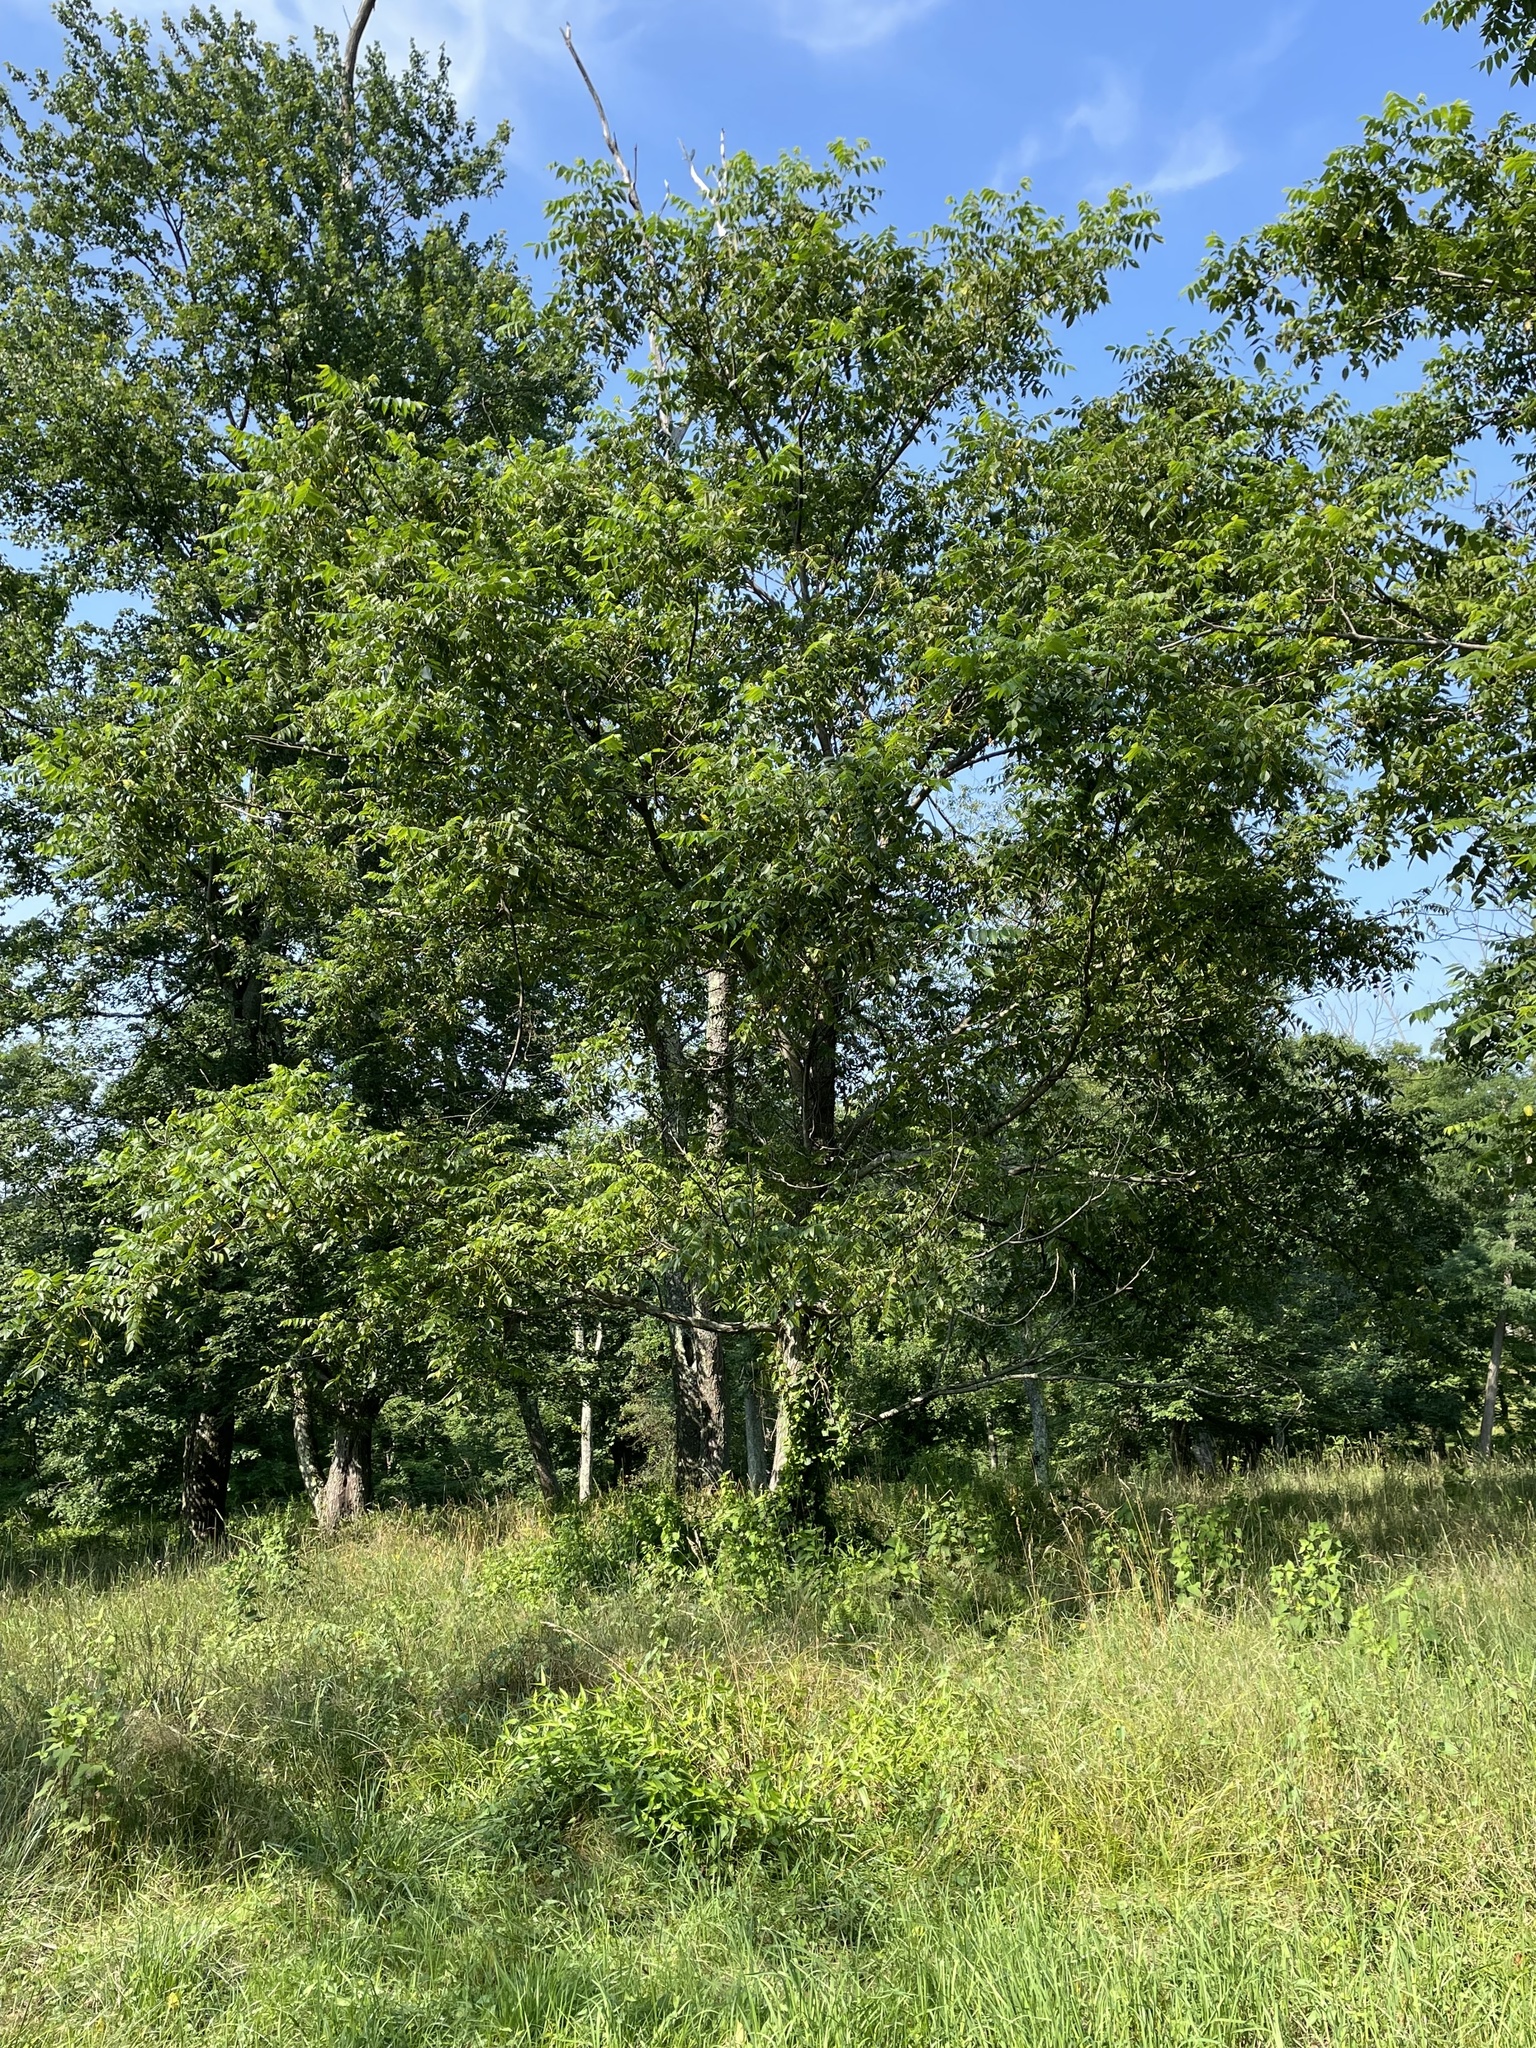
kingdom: Plantae
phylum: Tracheophyta
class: Magnoliopsida
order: Fagales
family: Juglandaceae
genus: Juglans
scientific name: Juglans cinerea
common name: Butternut
